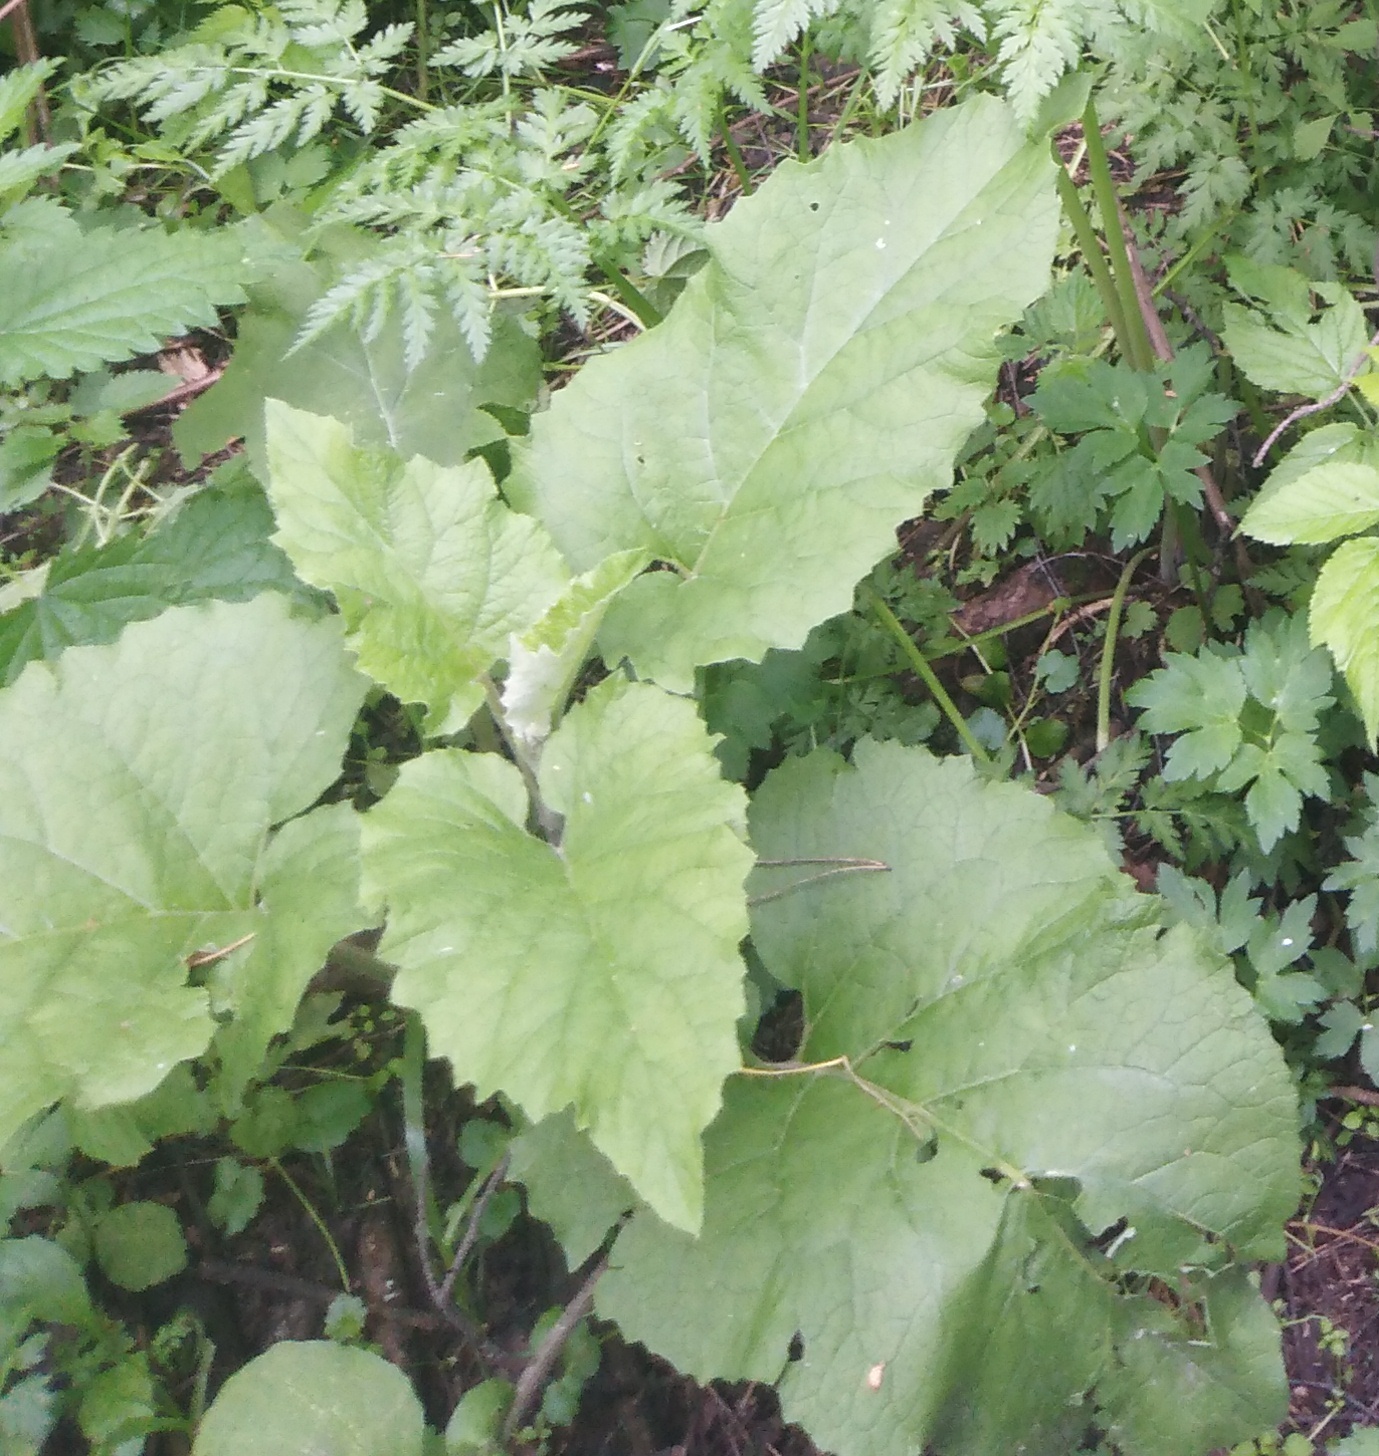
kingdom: Plantae
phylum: Tracheophyta
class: Magnoliopsida
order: Asterales
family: Asteraceae
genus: Arctium
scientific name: Arctium minus
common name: Lesser burdock
